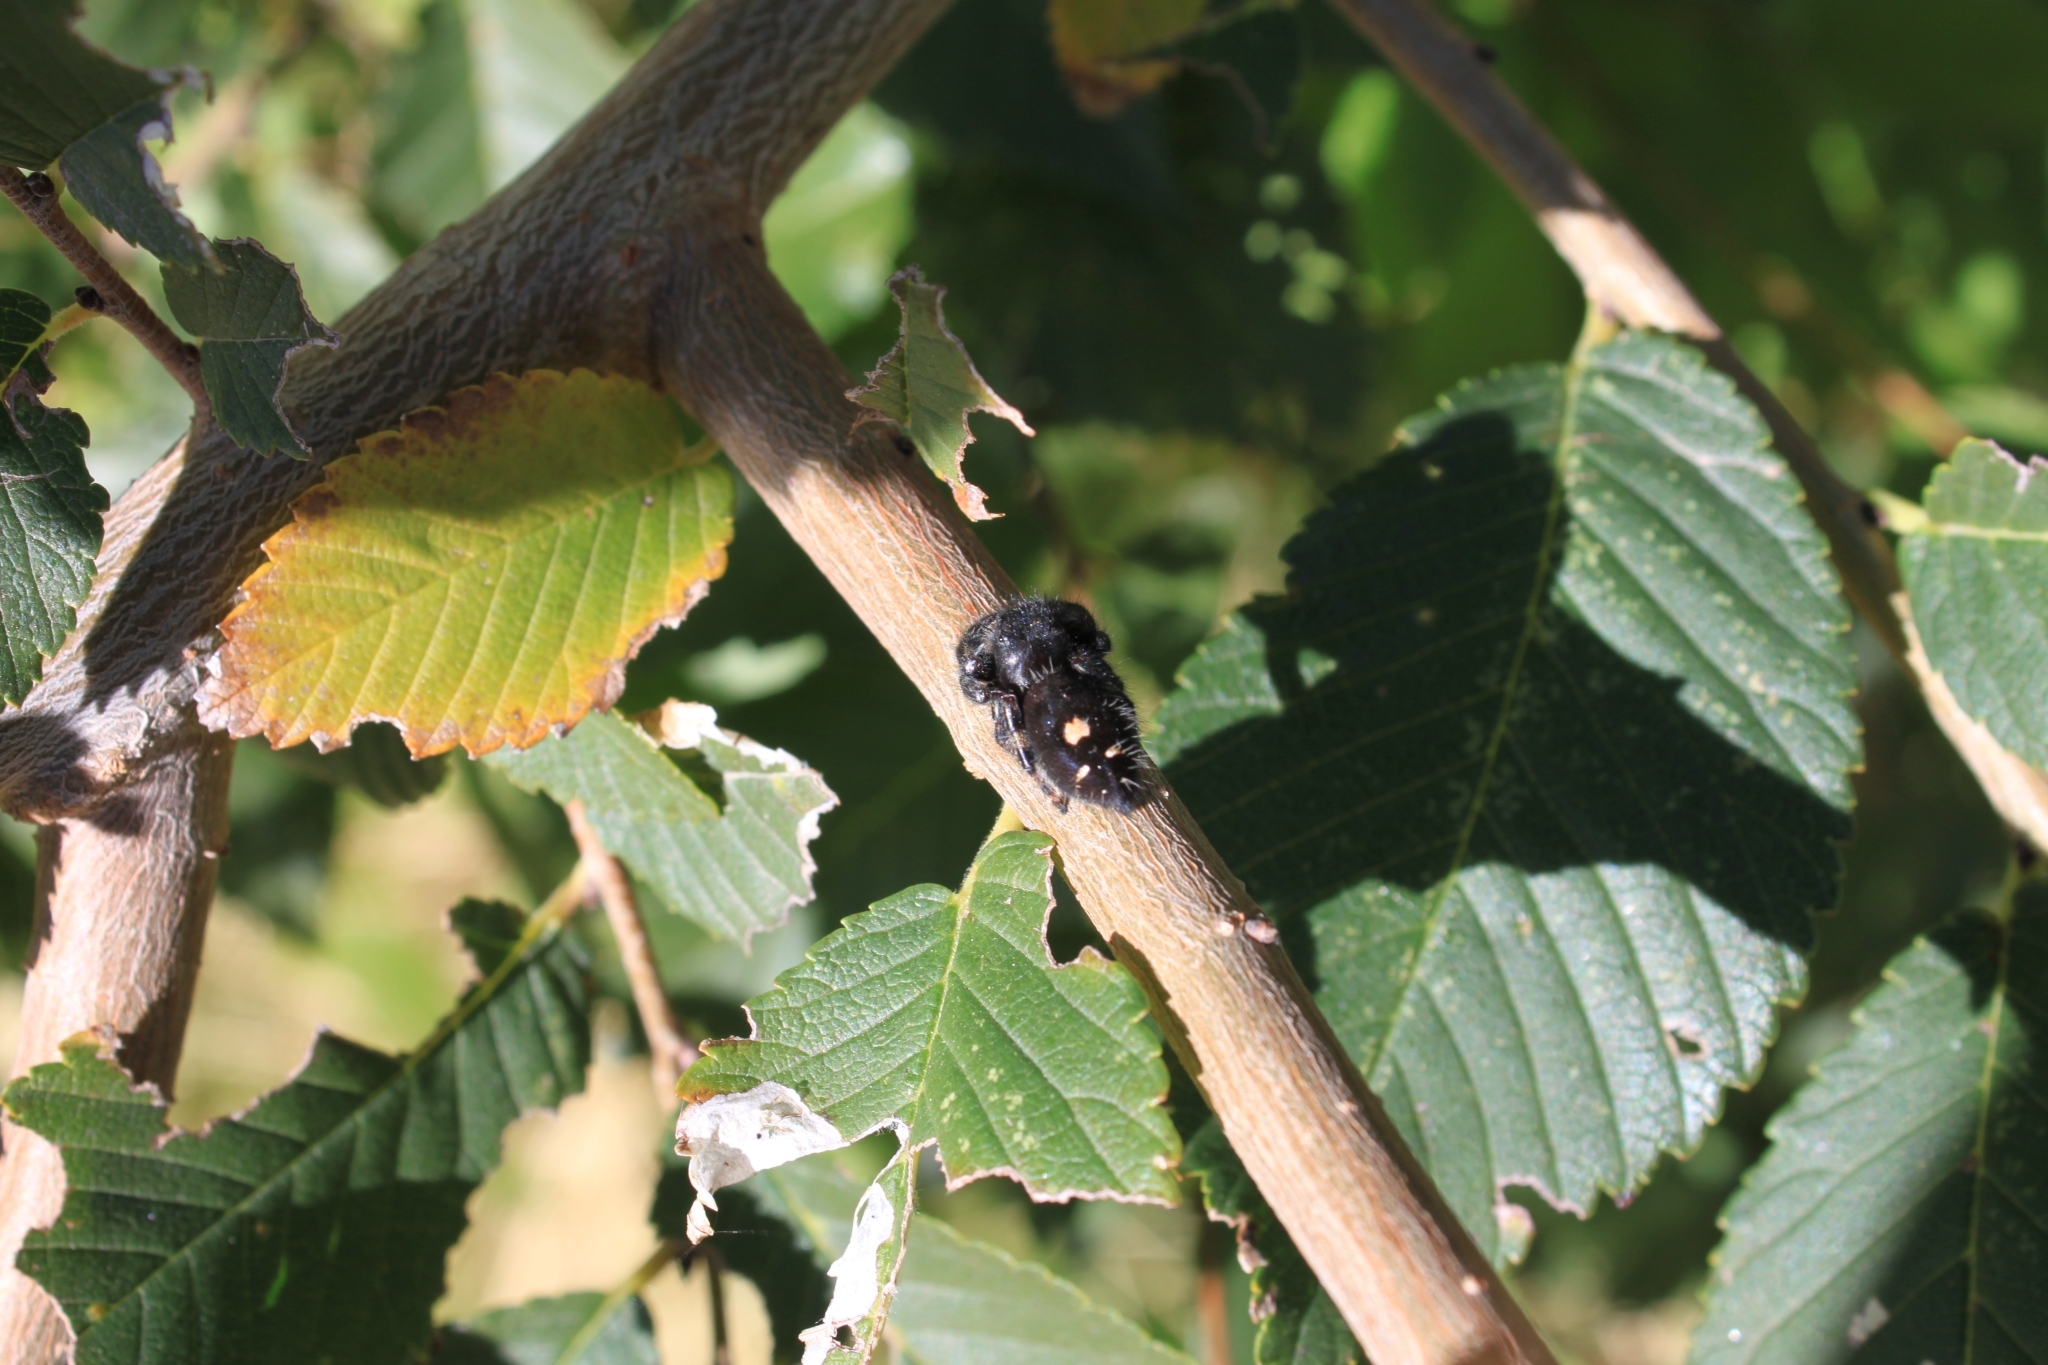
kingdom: Animalia
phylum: Arthropoda
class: Arachnida
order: Araneae
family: Salticidae
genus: Phidippus
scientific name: Phidippus audax
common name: Bold jumper
